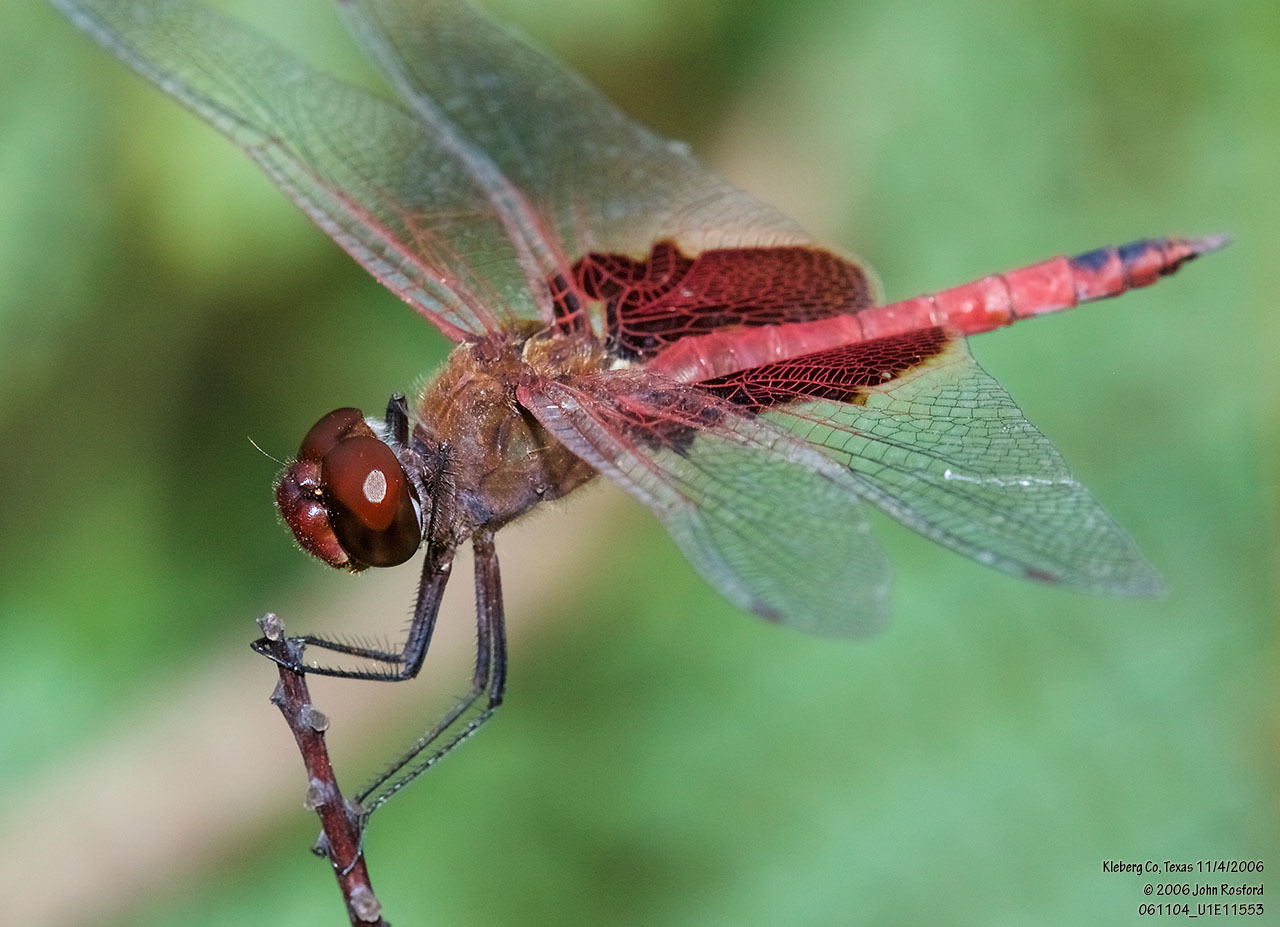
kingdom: Animalia
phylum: Arthropoda
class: Insecta
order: Odonata
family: Libellulidae
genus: Tramea
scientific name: Tramea onusta
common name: Red saddlebags
